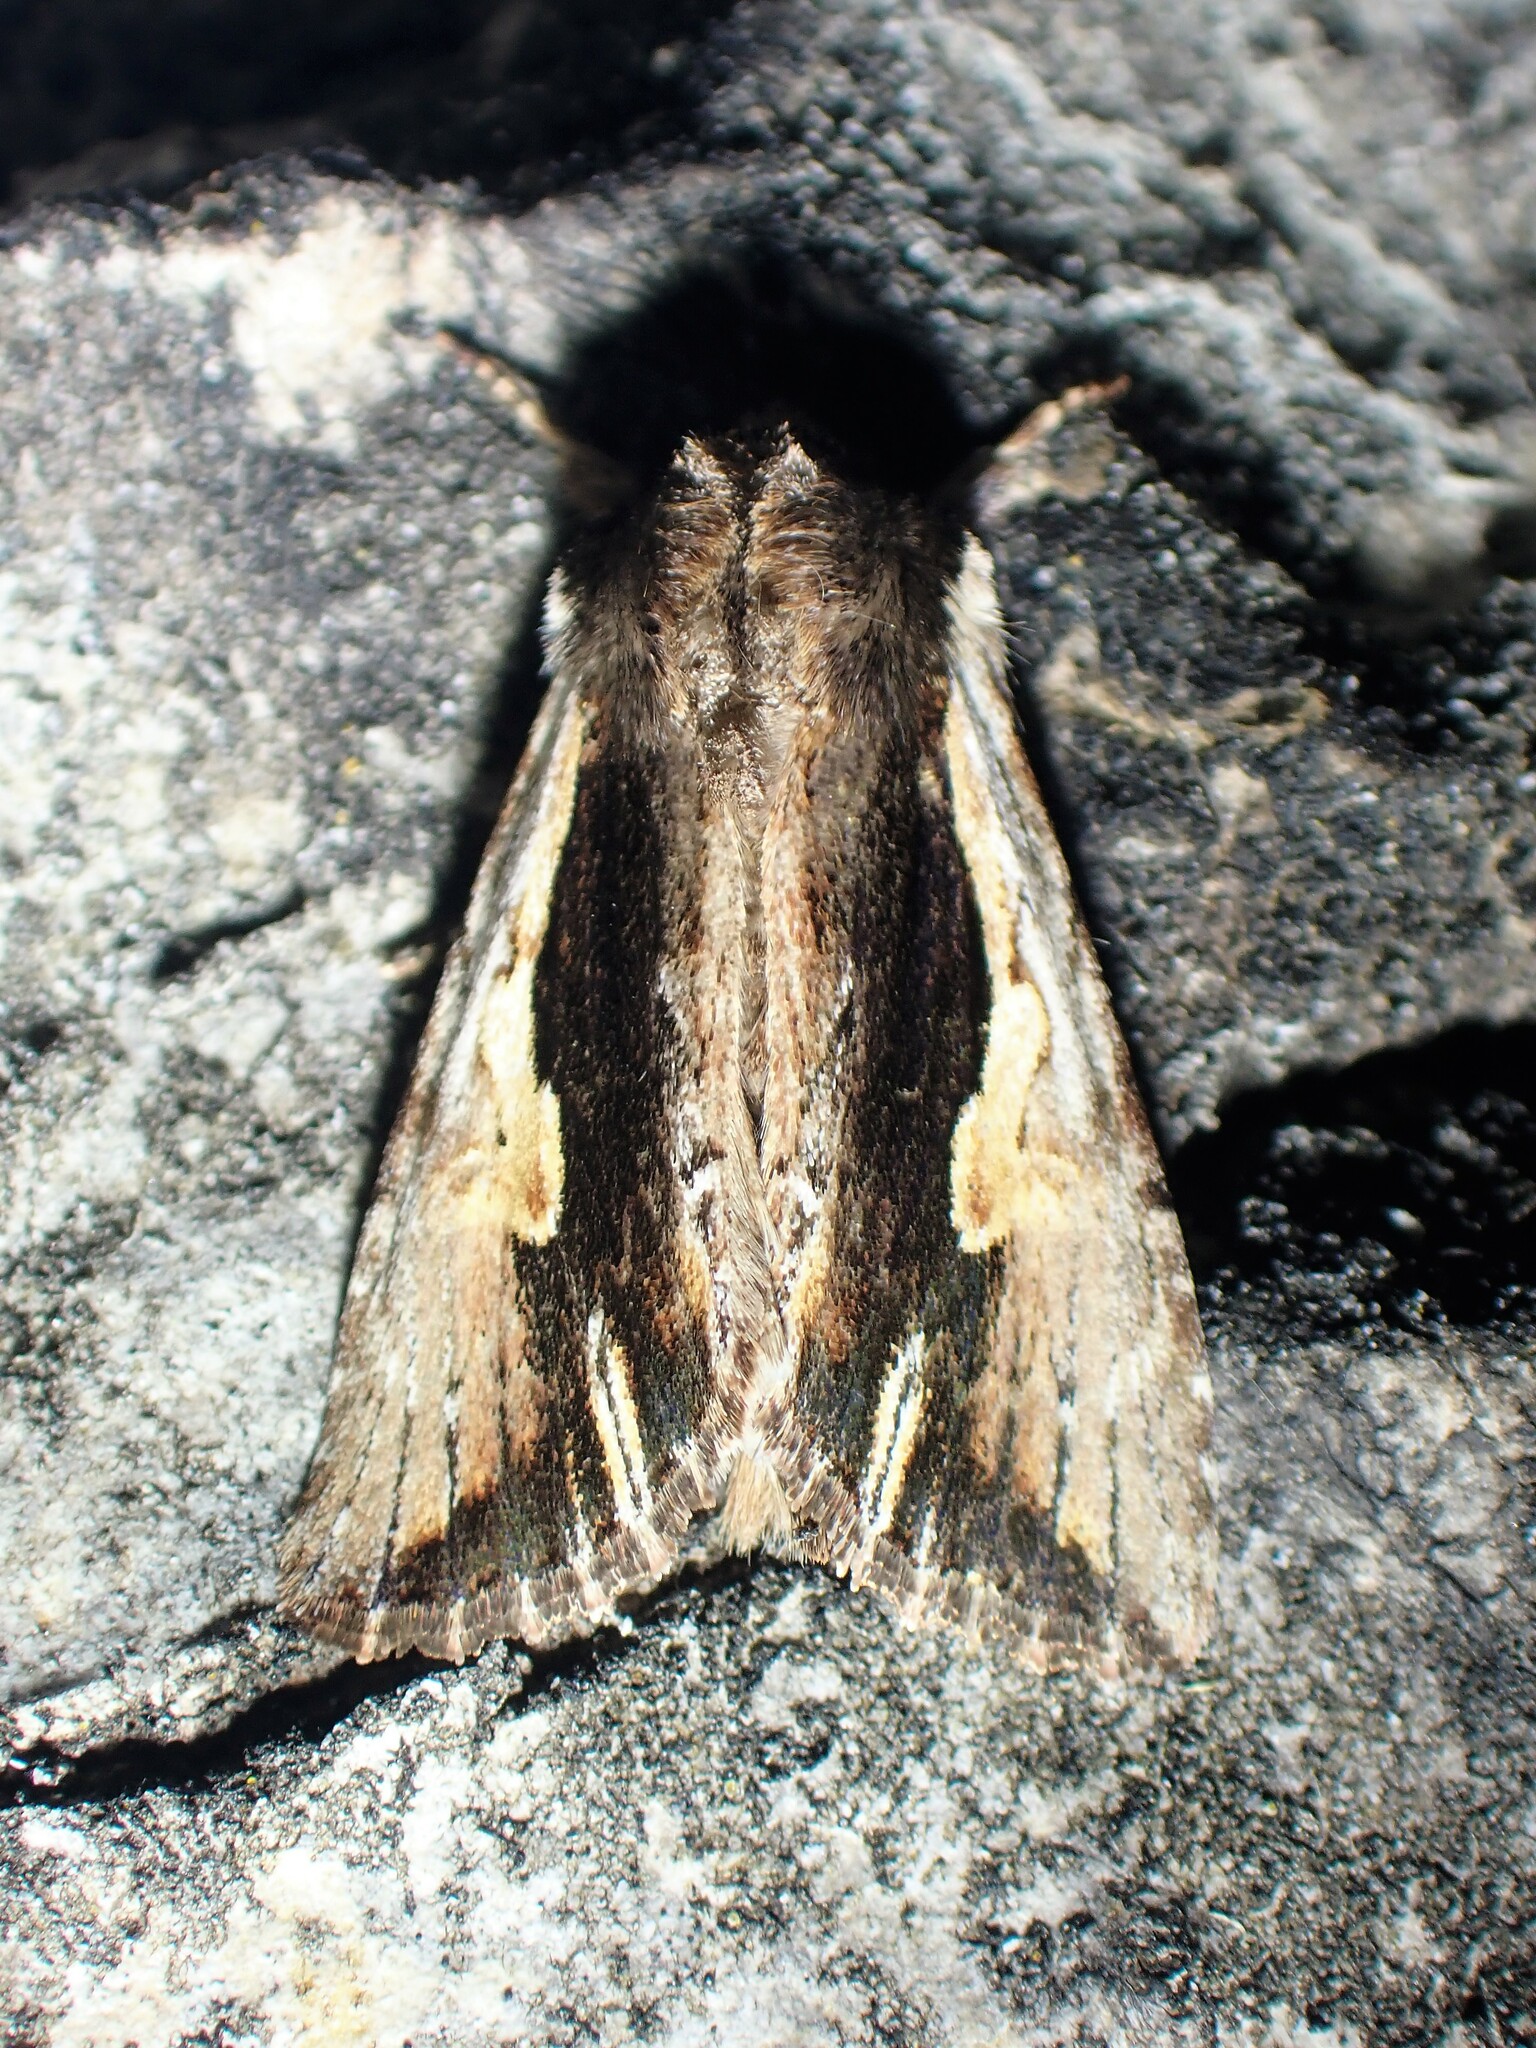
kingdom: Animalia
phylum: Arthropoda
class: Insecta
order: Lepidoptera
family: Noctuidae
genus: Achatia
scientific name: Achatia evicta
